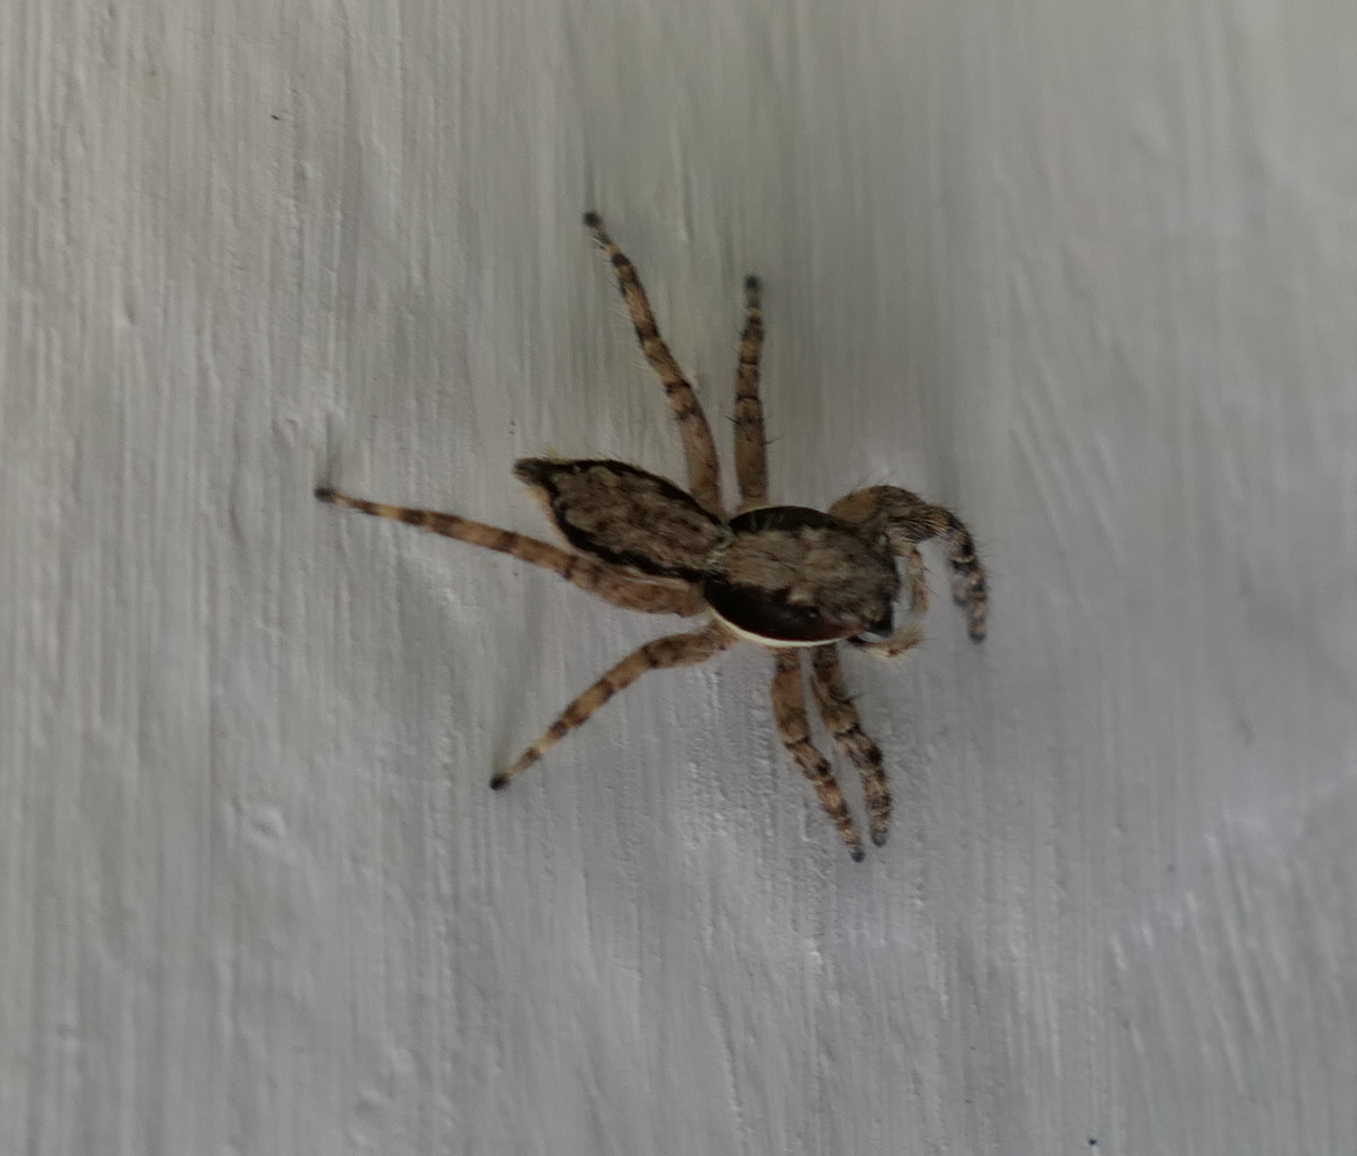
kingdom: Animalia
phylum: Arthropoda
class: Arachnida
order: Araneae
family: Salticidae
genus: Menemerus
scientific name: Menemerus bivittatus
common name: Gray wall jumper
